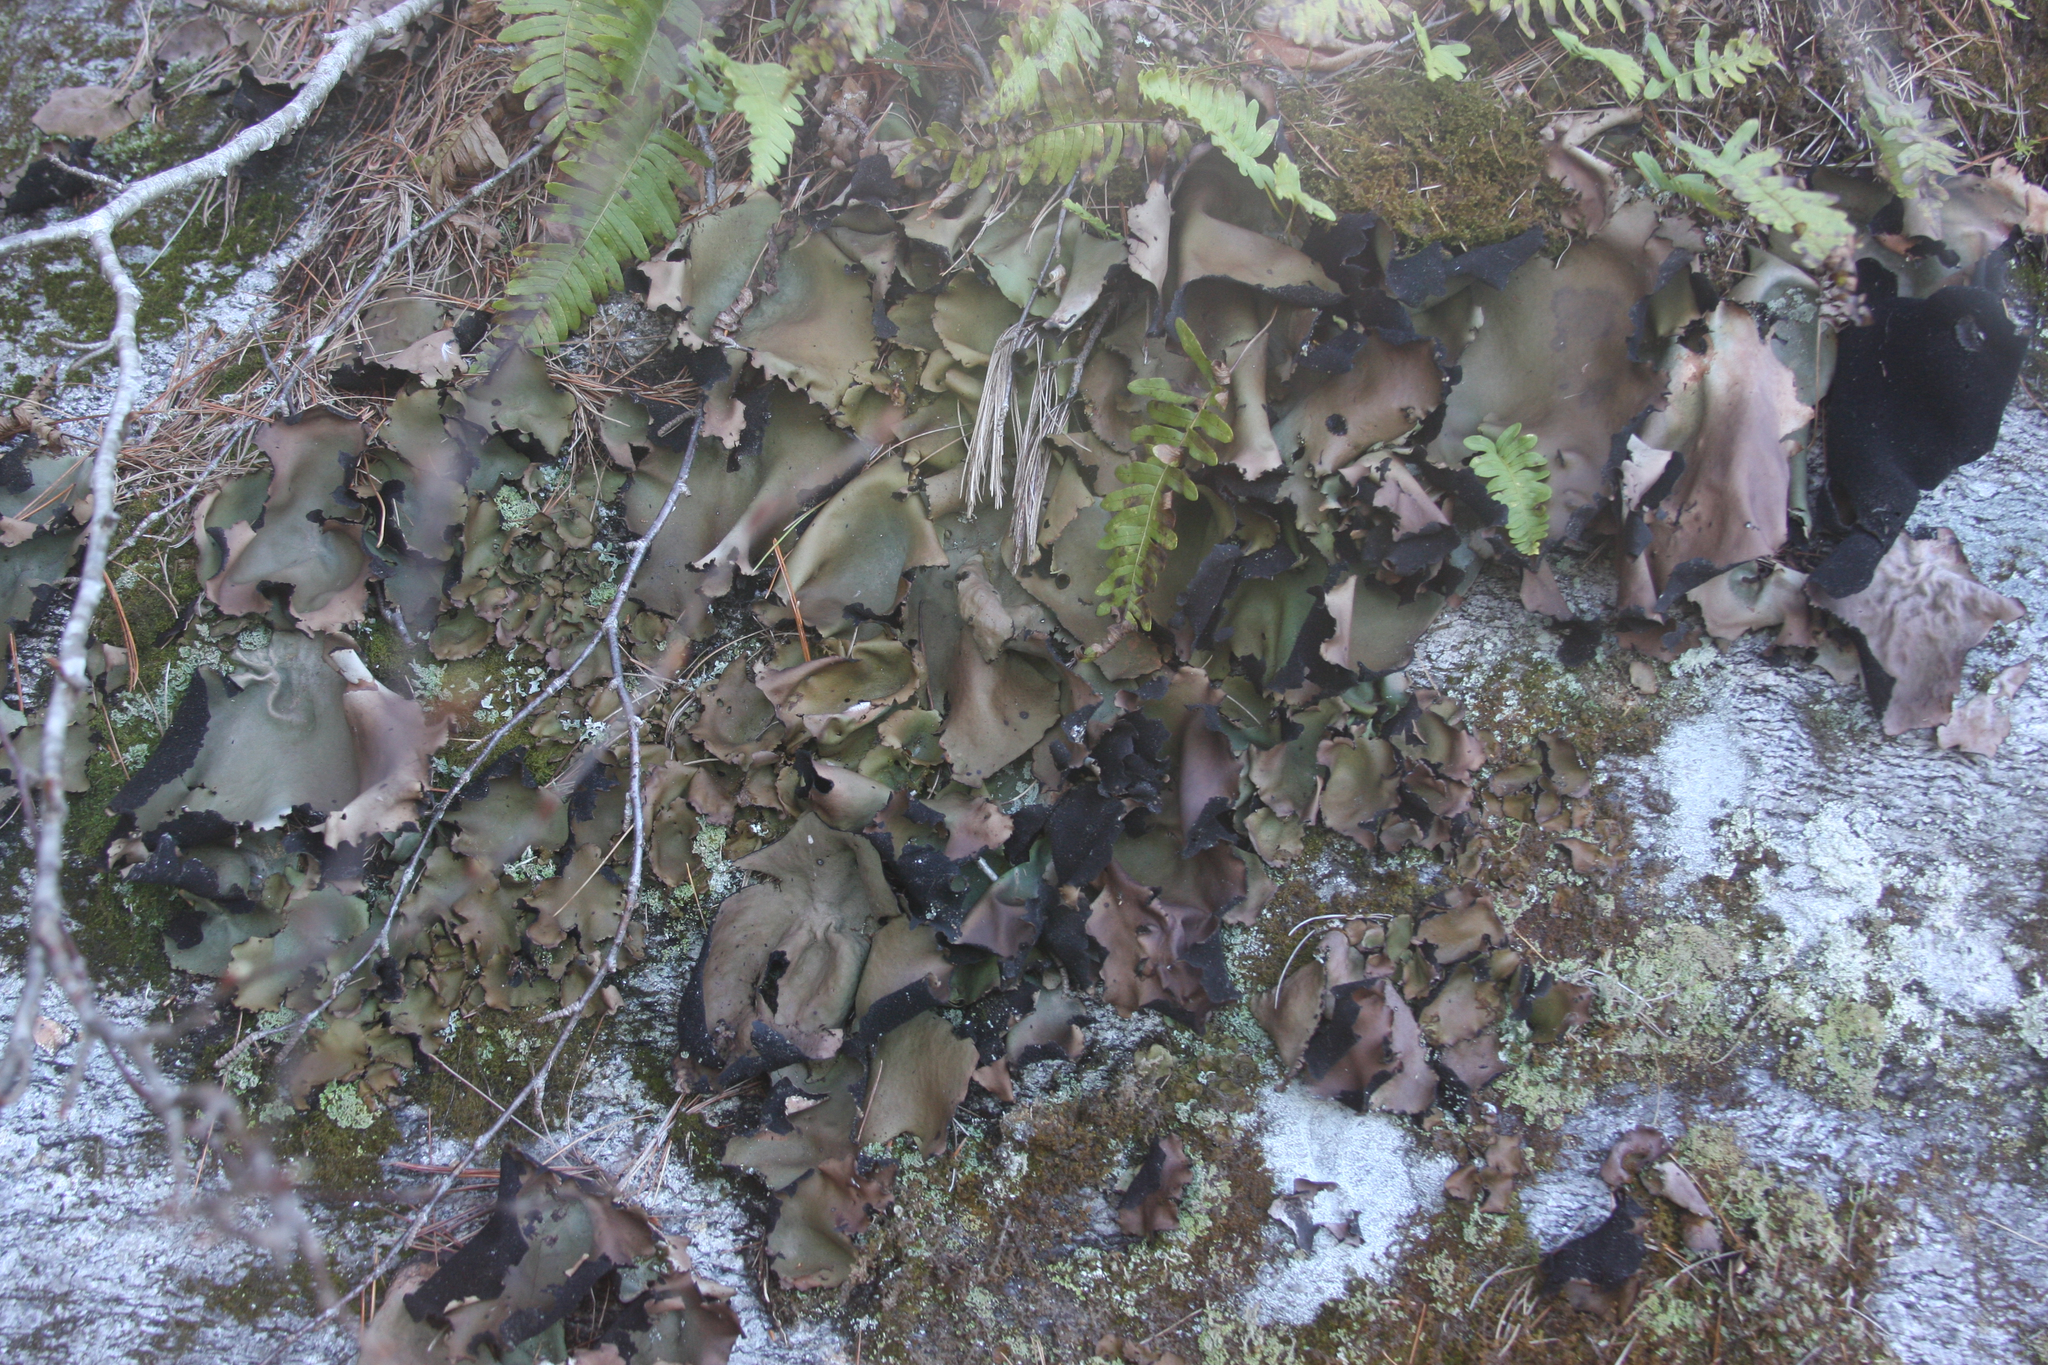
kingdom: Fungi
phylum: Ascomycota
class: Lecanoromycetes
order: Umbilicariales
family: Umbilicariaceae
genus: Umbilicaria
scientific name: Umbilicaria mammulata
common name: Smooth rock tripe
